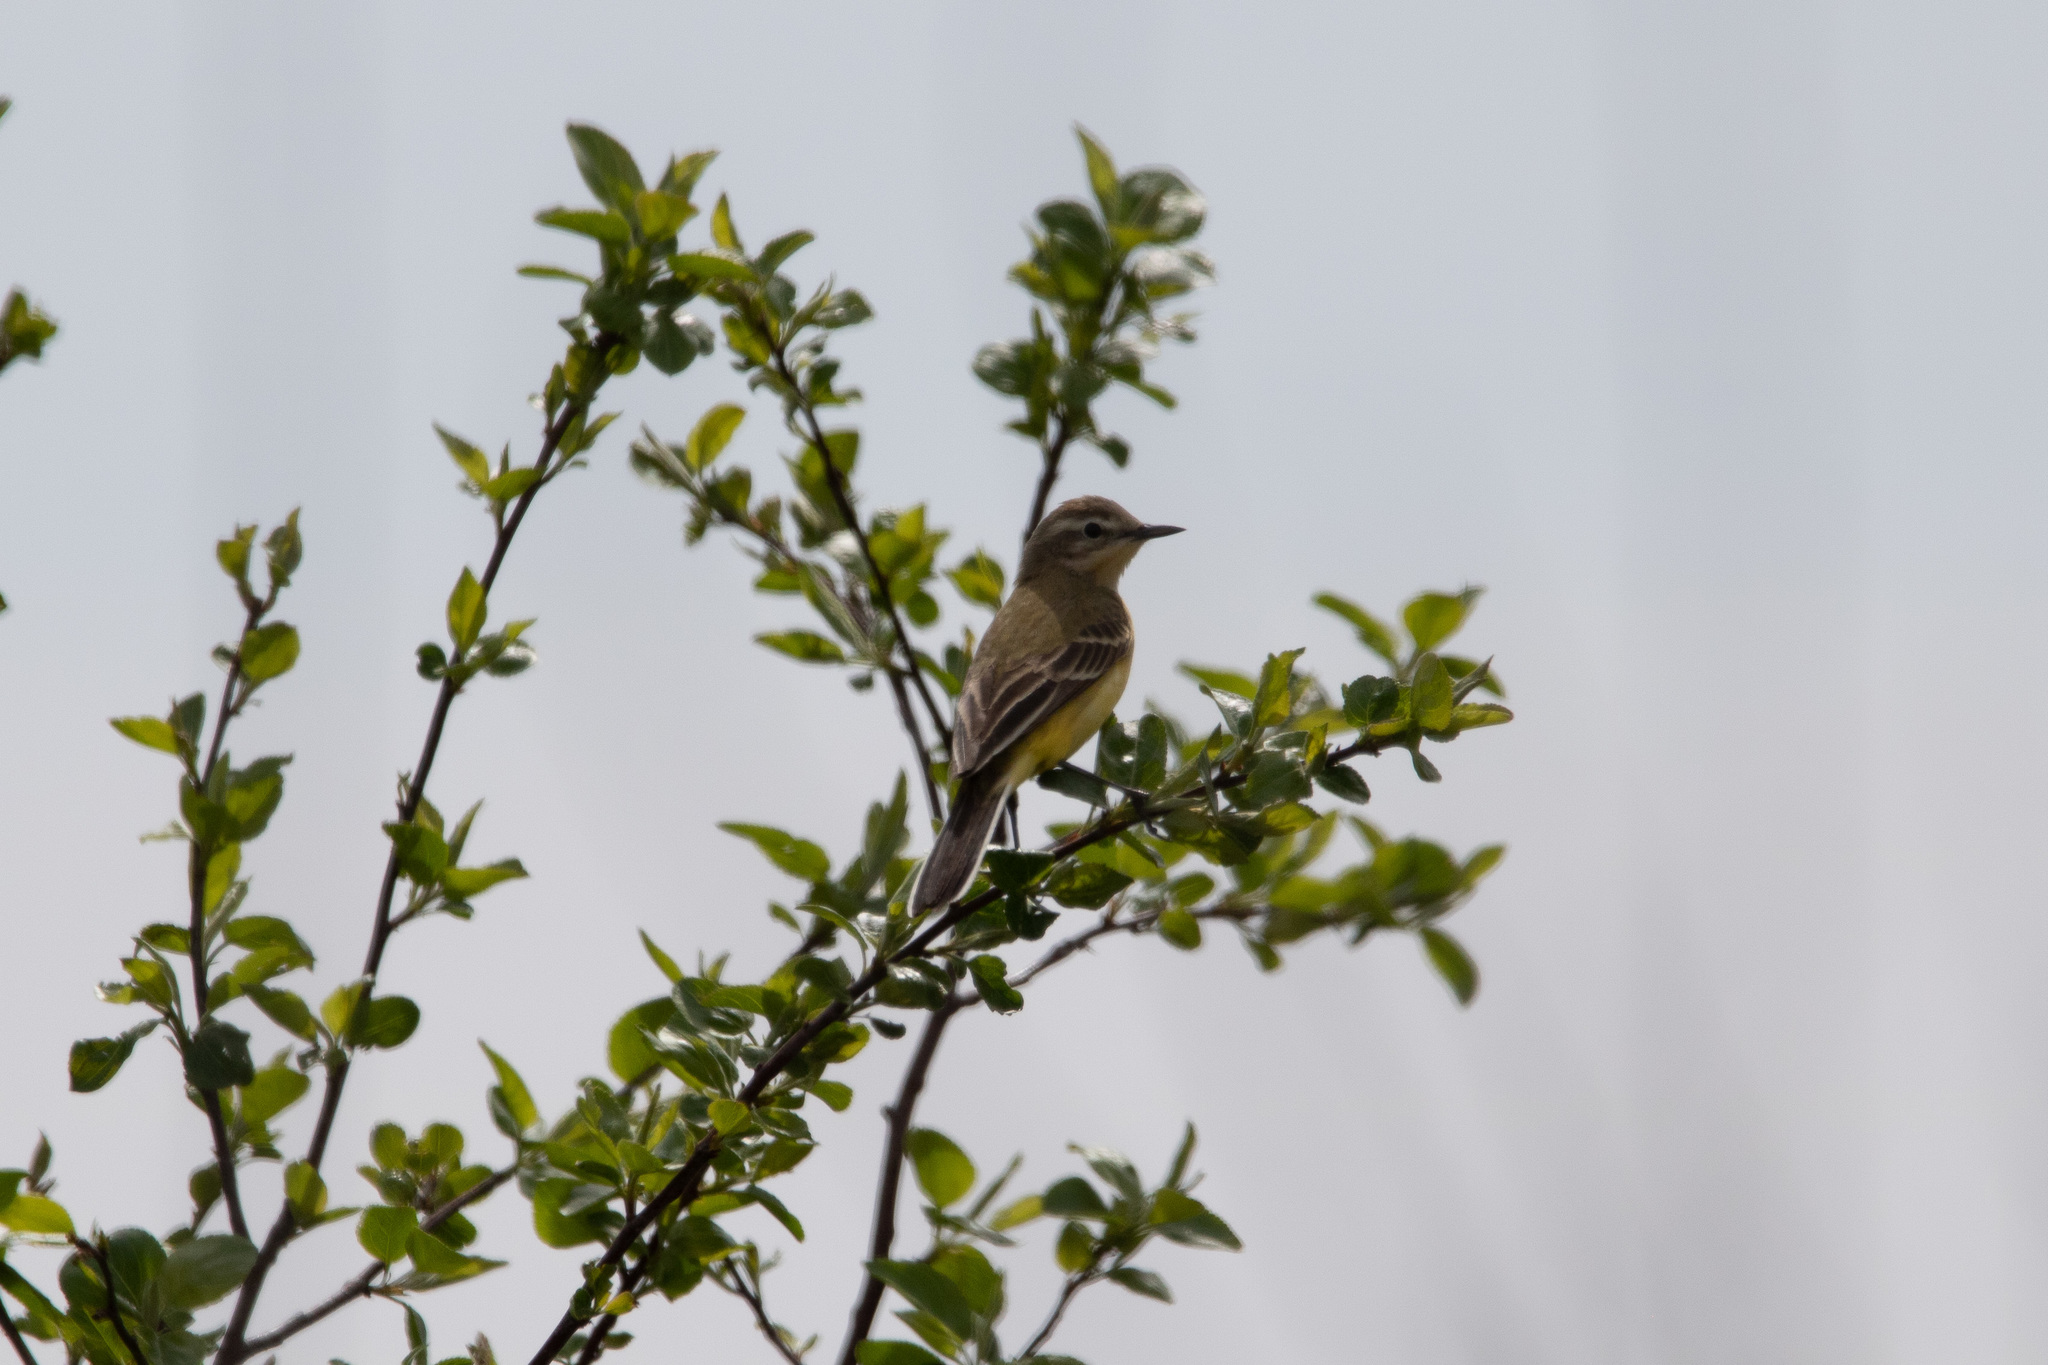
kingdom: Animalia
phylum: Chordata
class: Aves
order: Passeriformes
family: Motacillidae
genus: Motacilla
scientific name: Motacilla flava
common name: Western yellow wagtail
